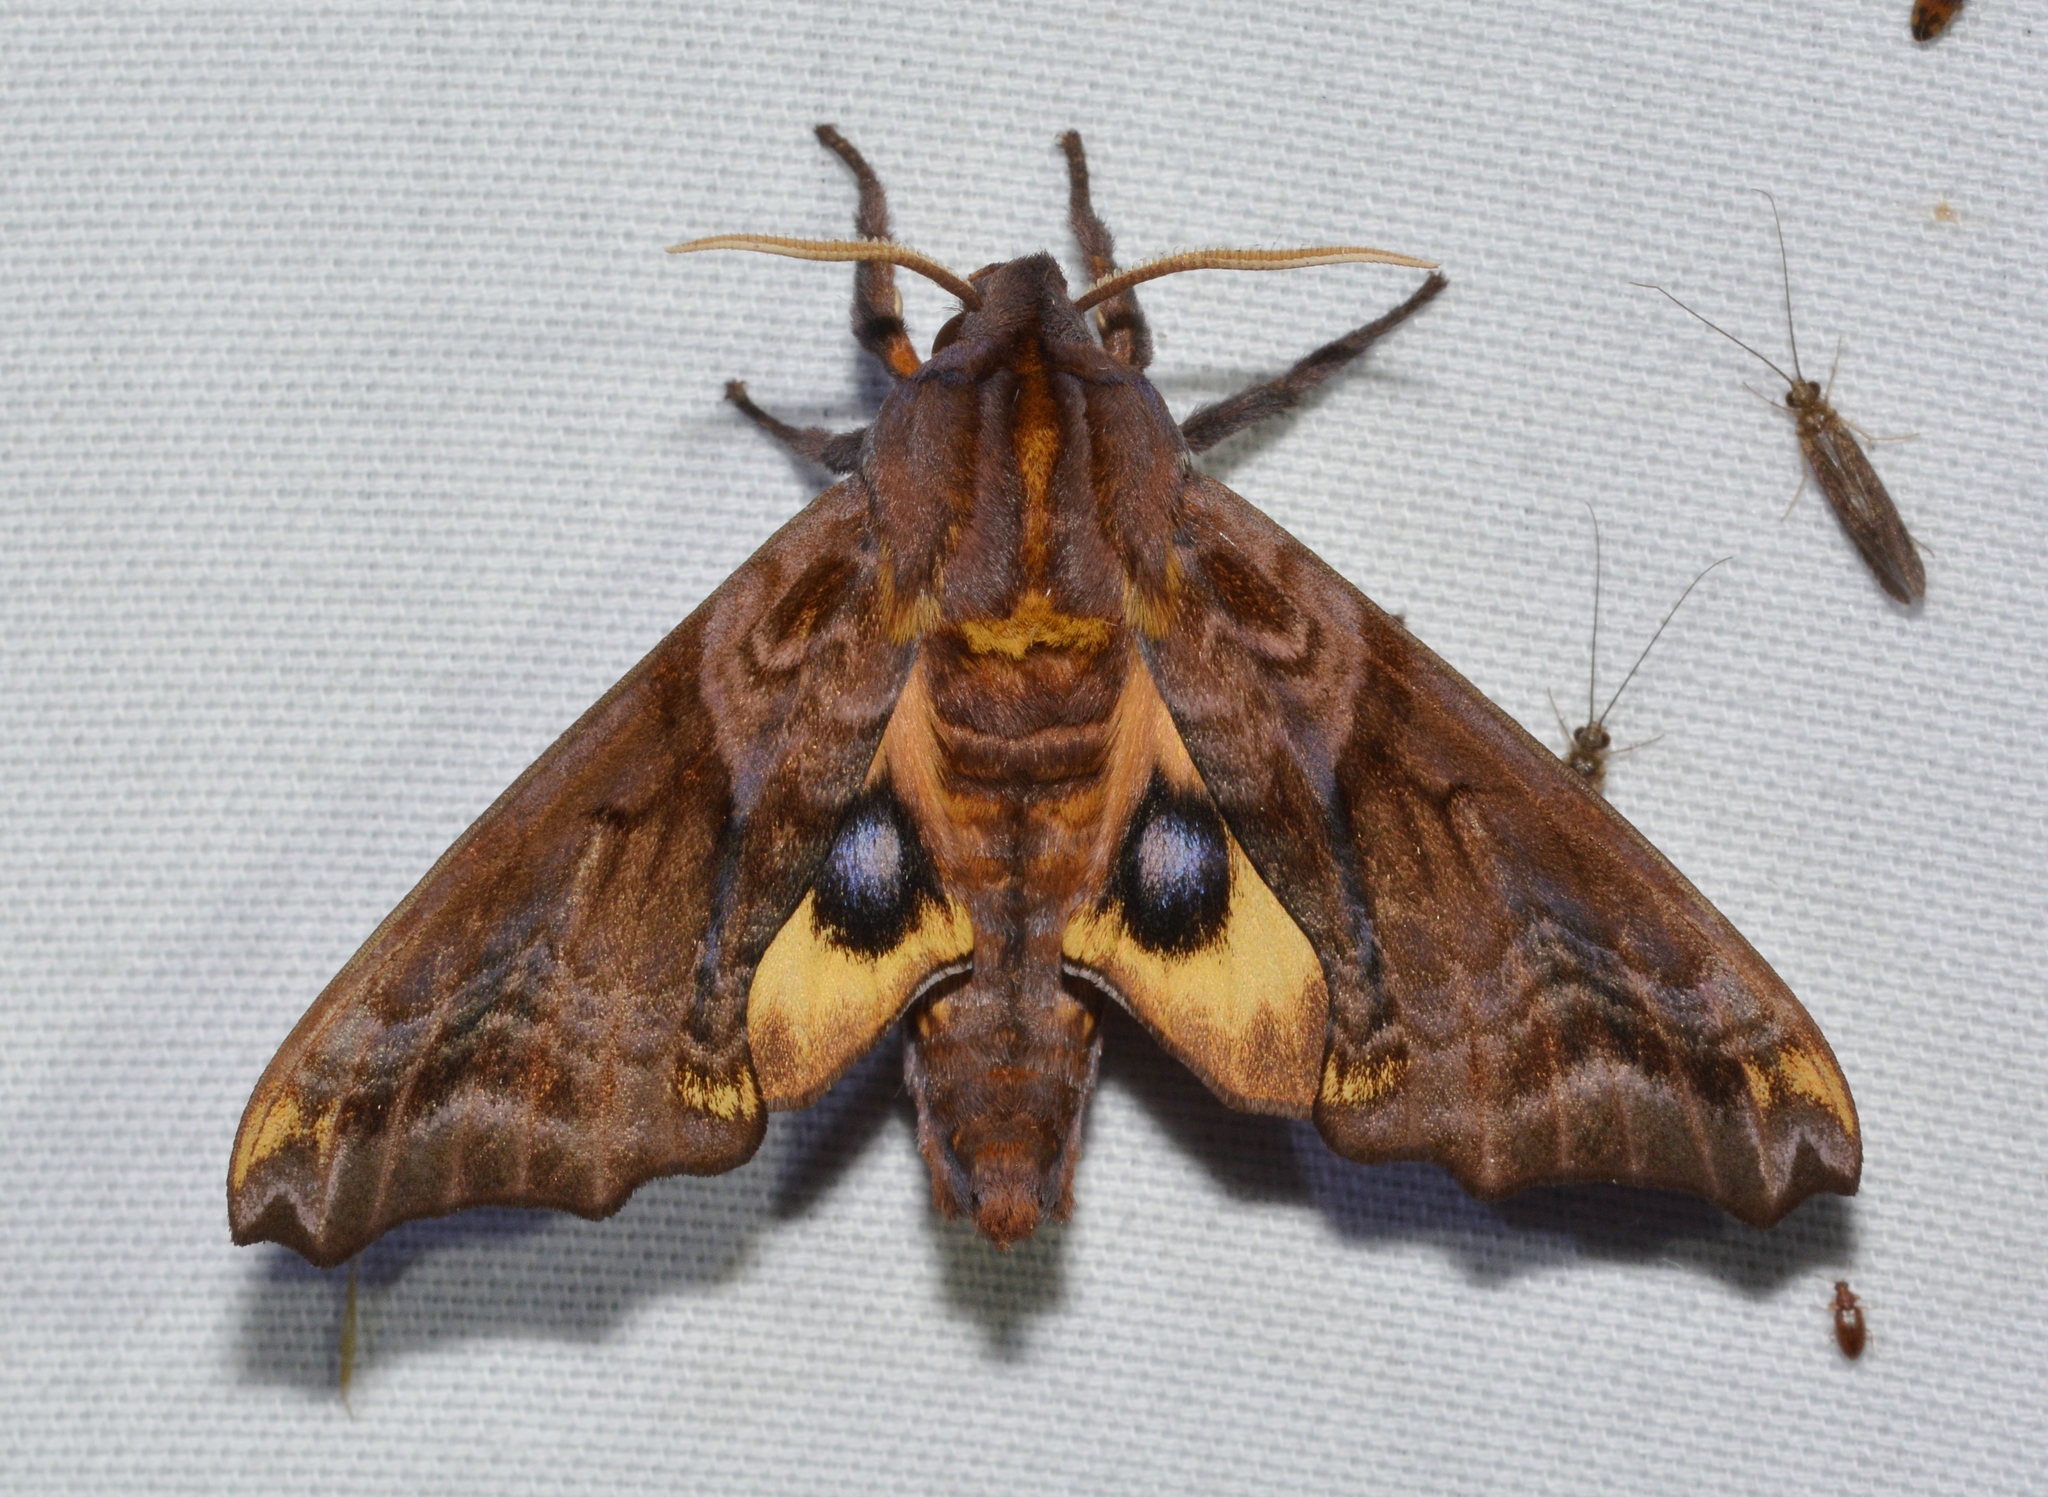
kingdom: Animalia
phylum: Arthropoda
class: Insecta
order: Lepidoptera
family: Sphingidae
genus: Paonias
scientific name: Paonias myops
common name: Small-eyed sphinx
